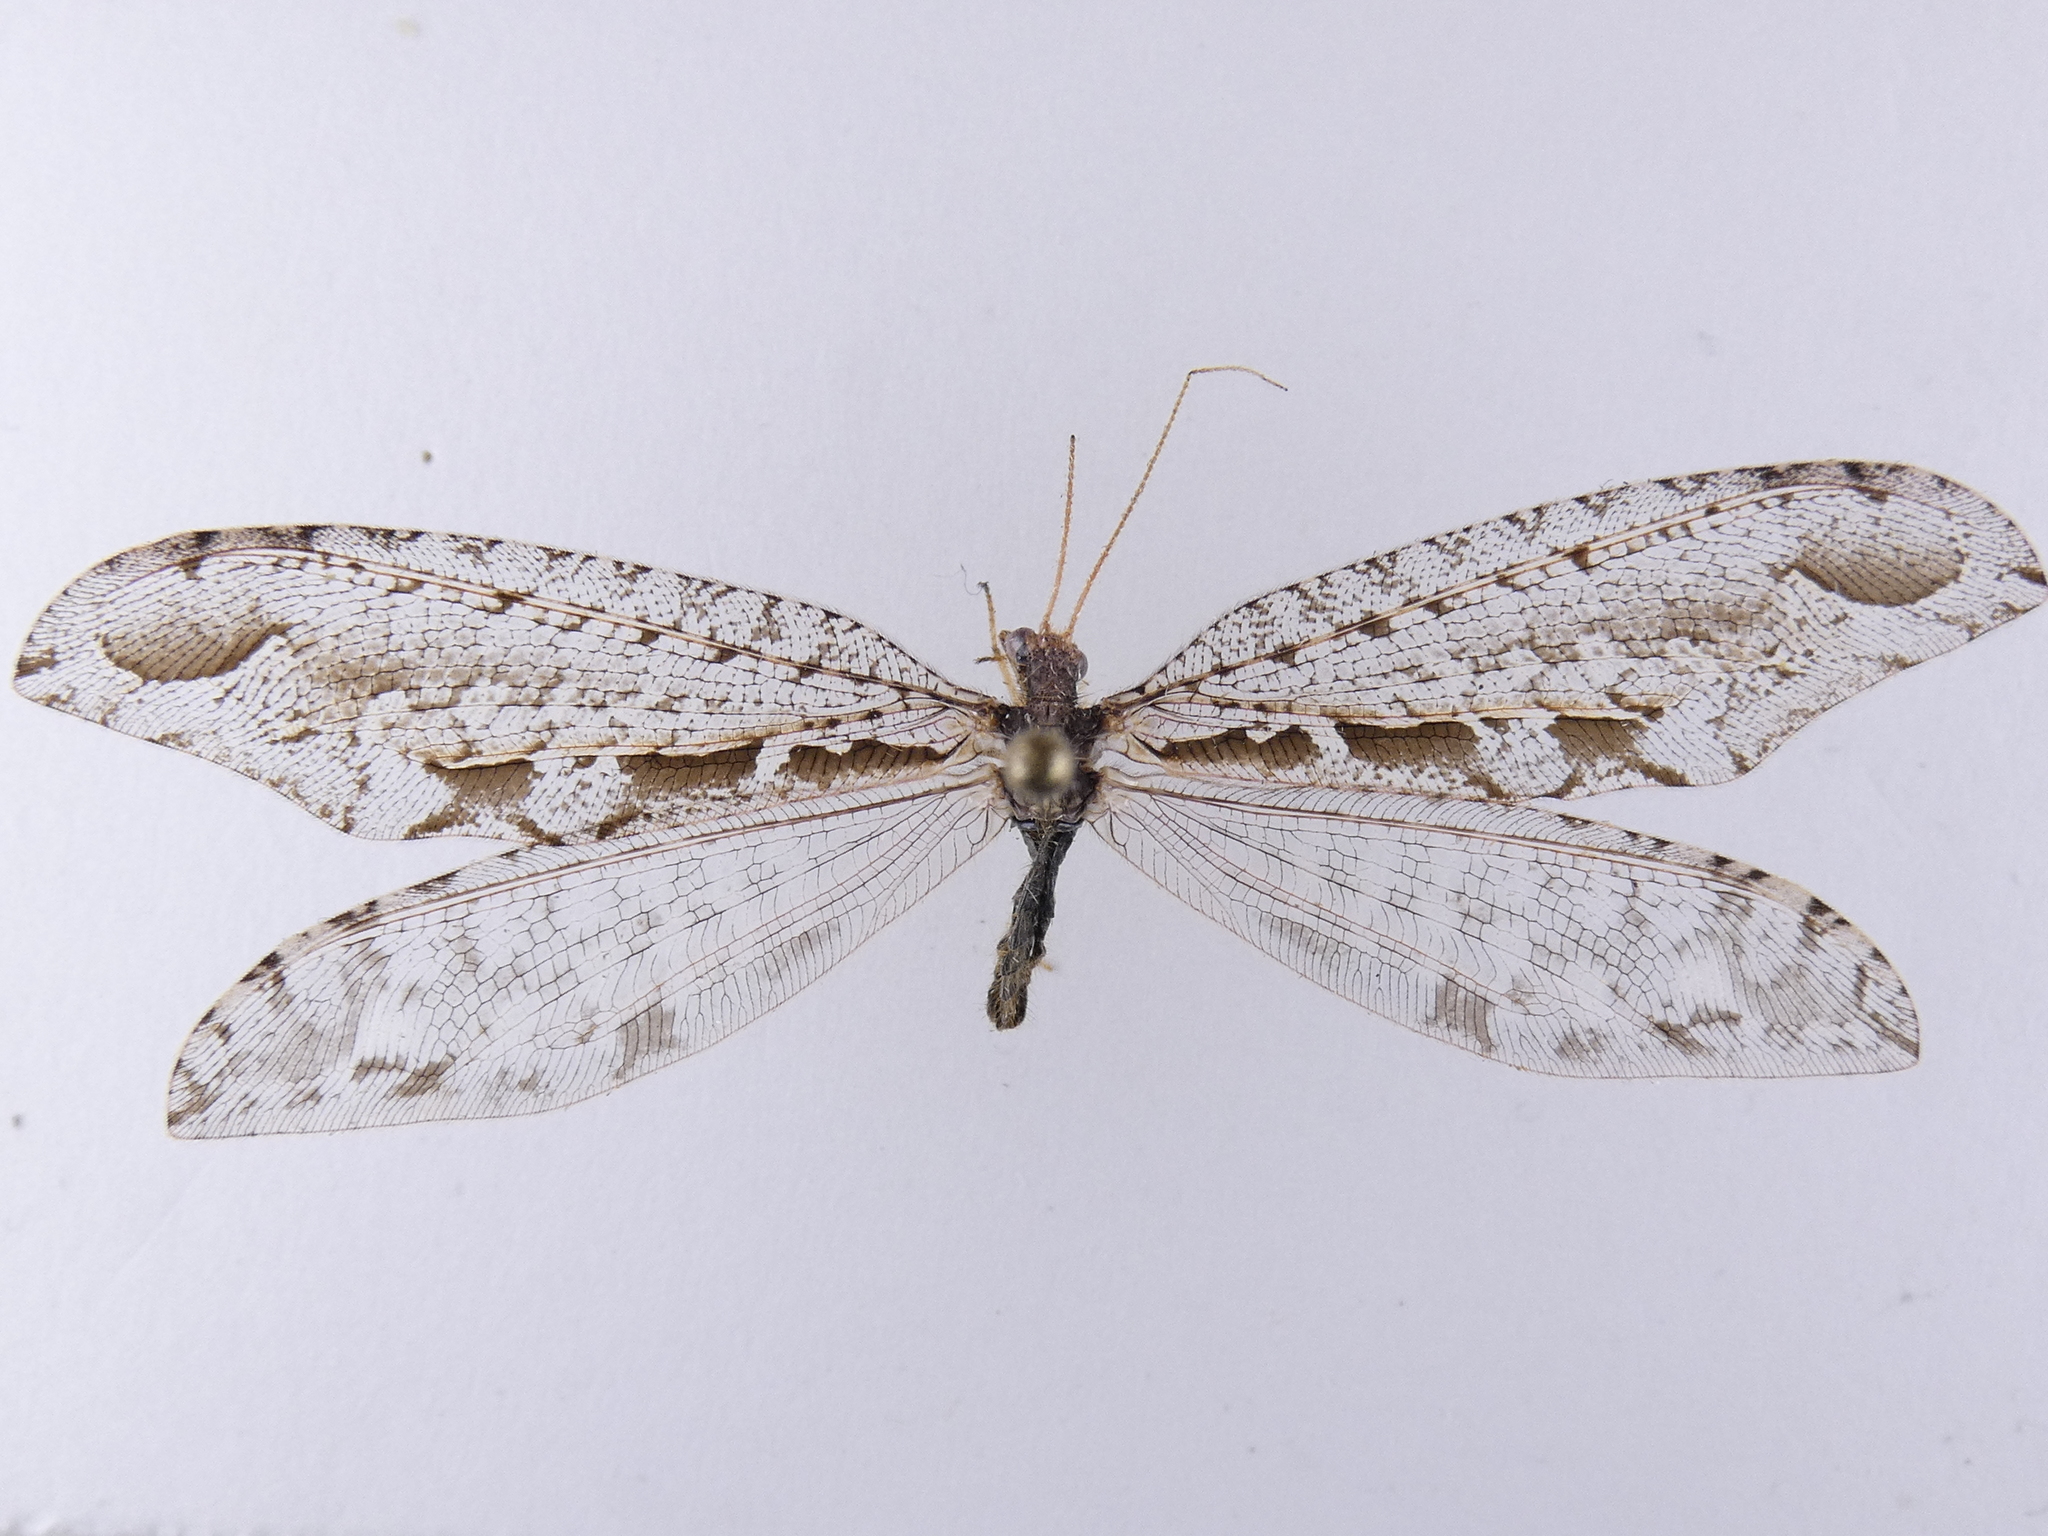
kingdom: Animalia
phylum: Arthropoda
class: Insecta
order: Neuroptera
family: Osmylidae
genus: Kempynus
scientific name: Kempynus incisus
